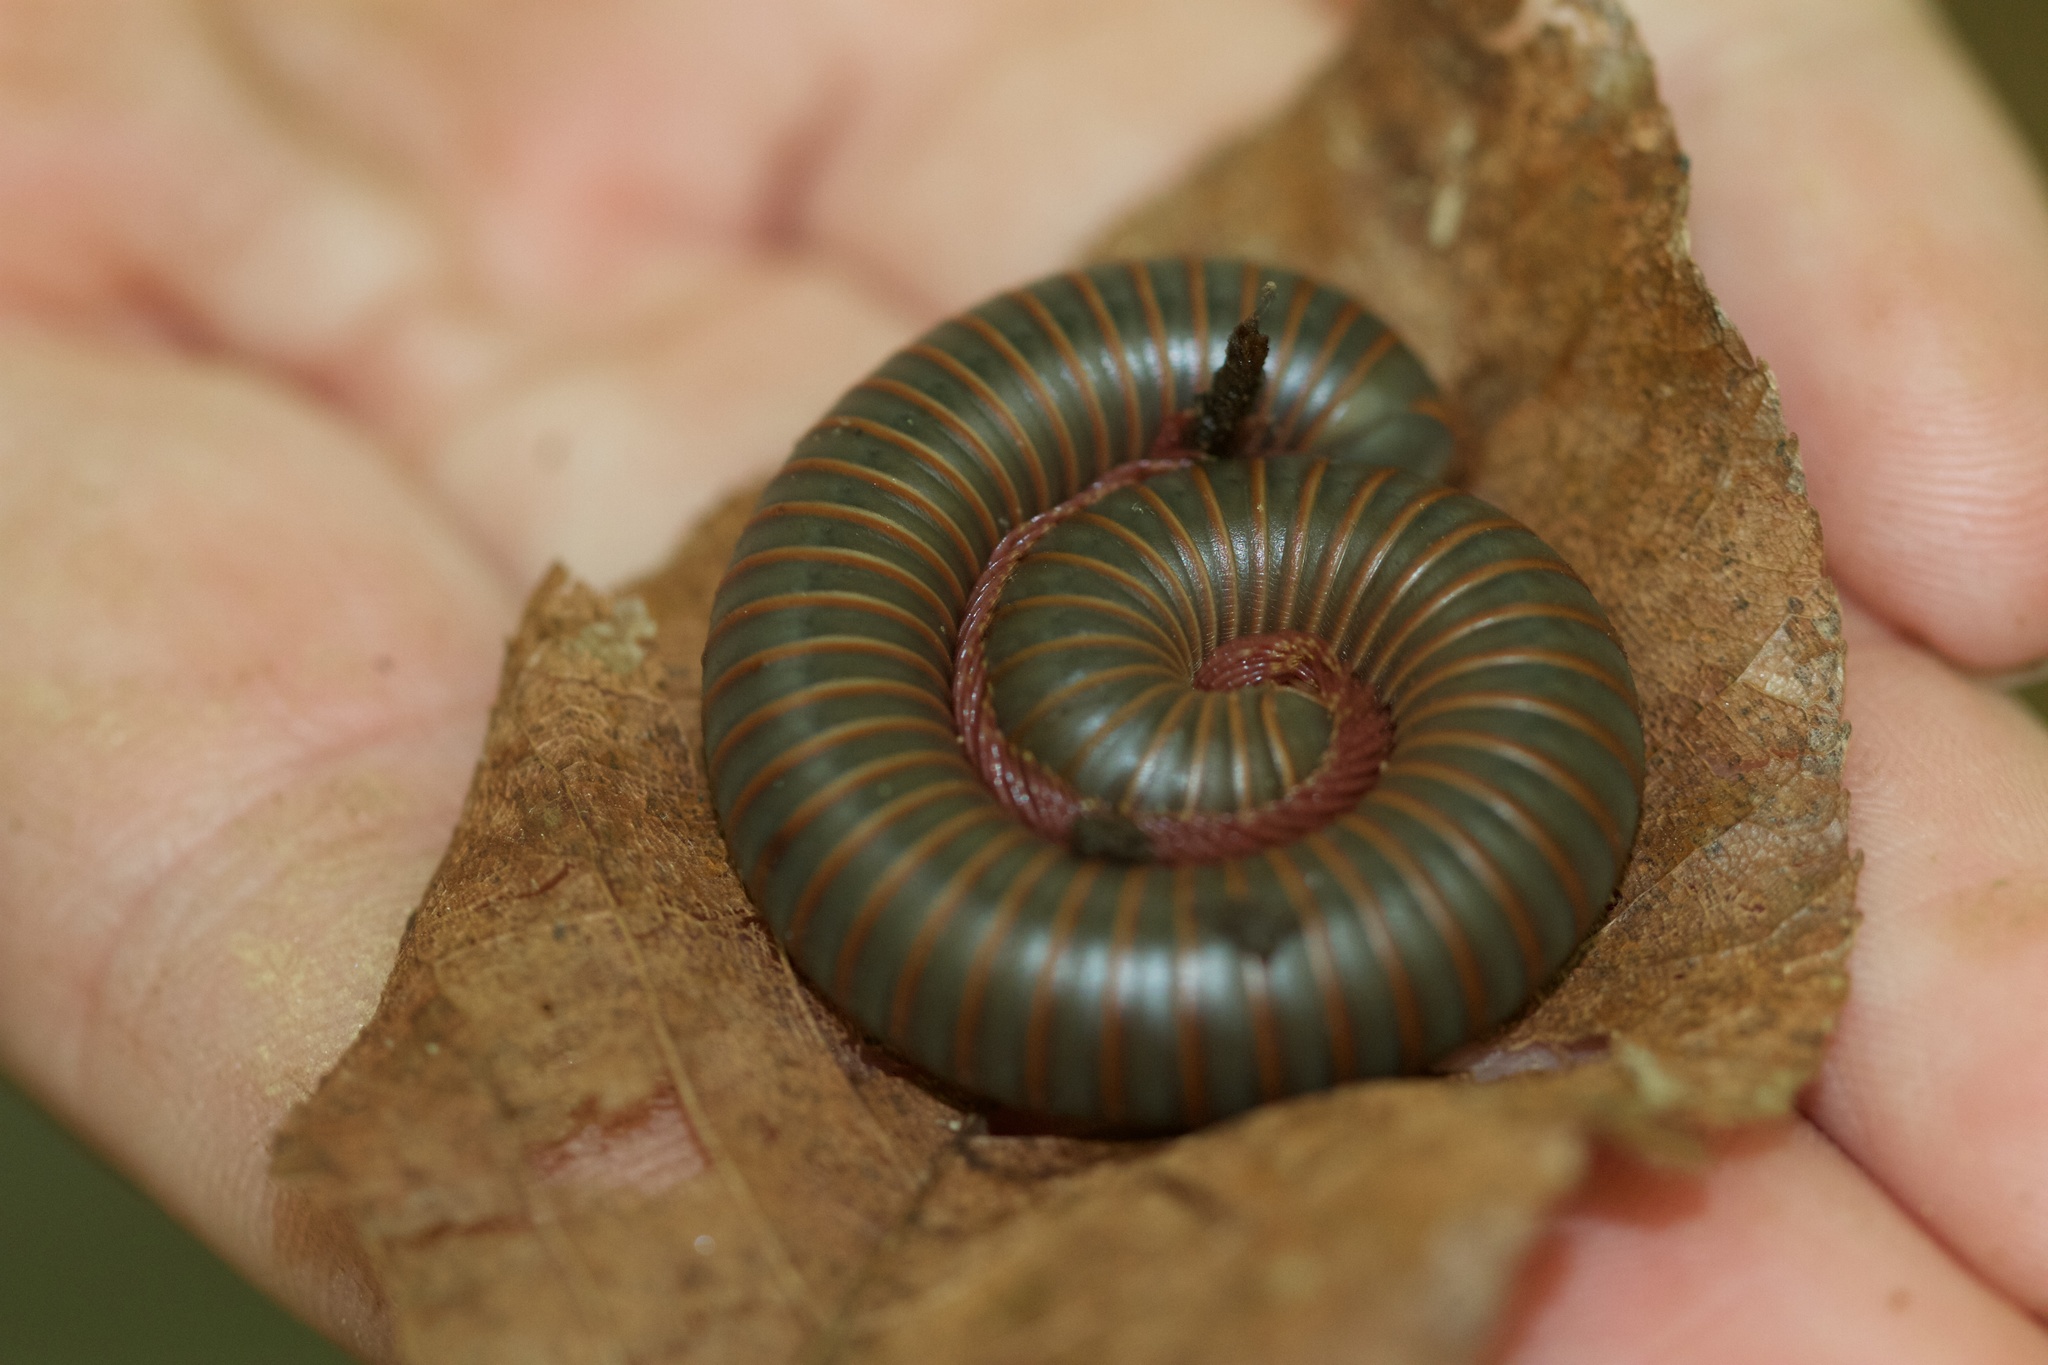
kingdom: Animalia
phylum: Arthropoda
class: Diplopoda
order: Spirobolida
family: Spirobolidae
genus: Narceus
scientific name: Narceus
